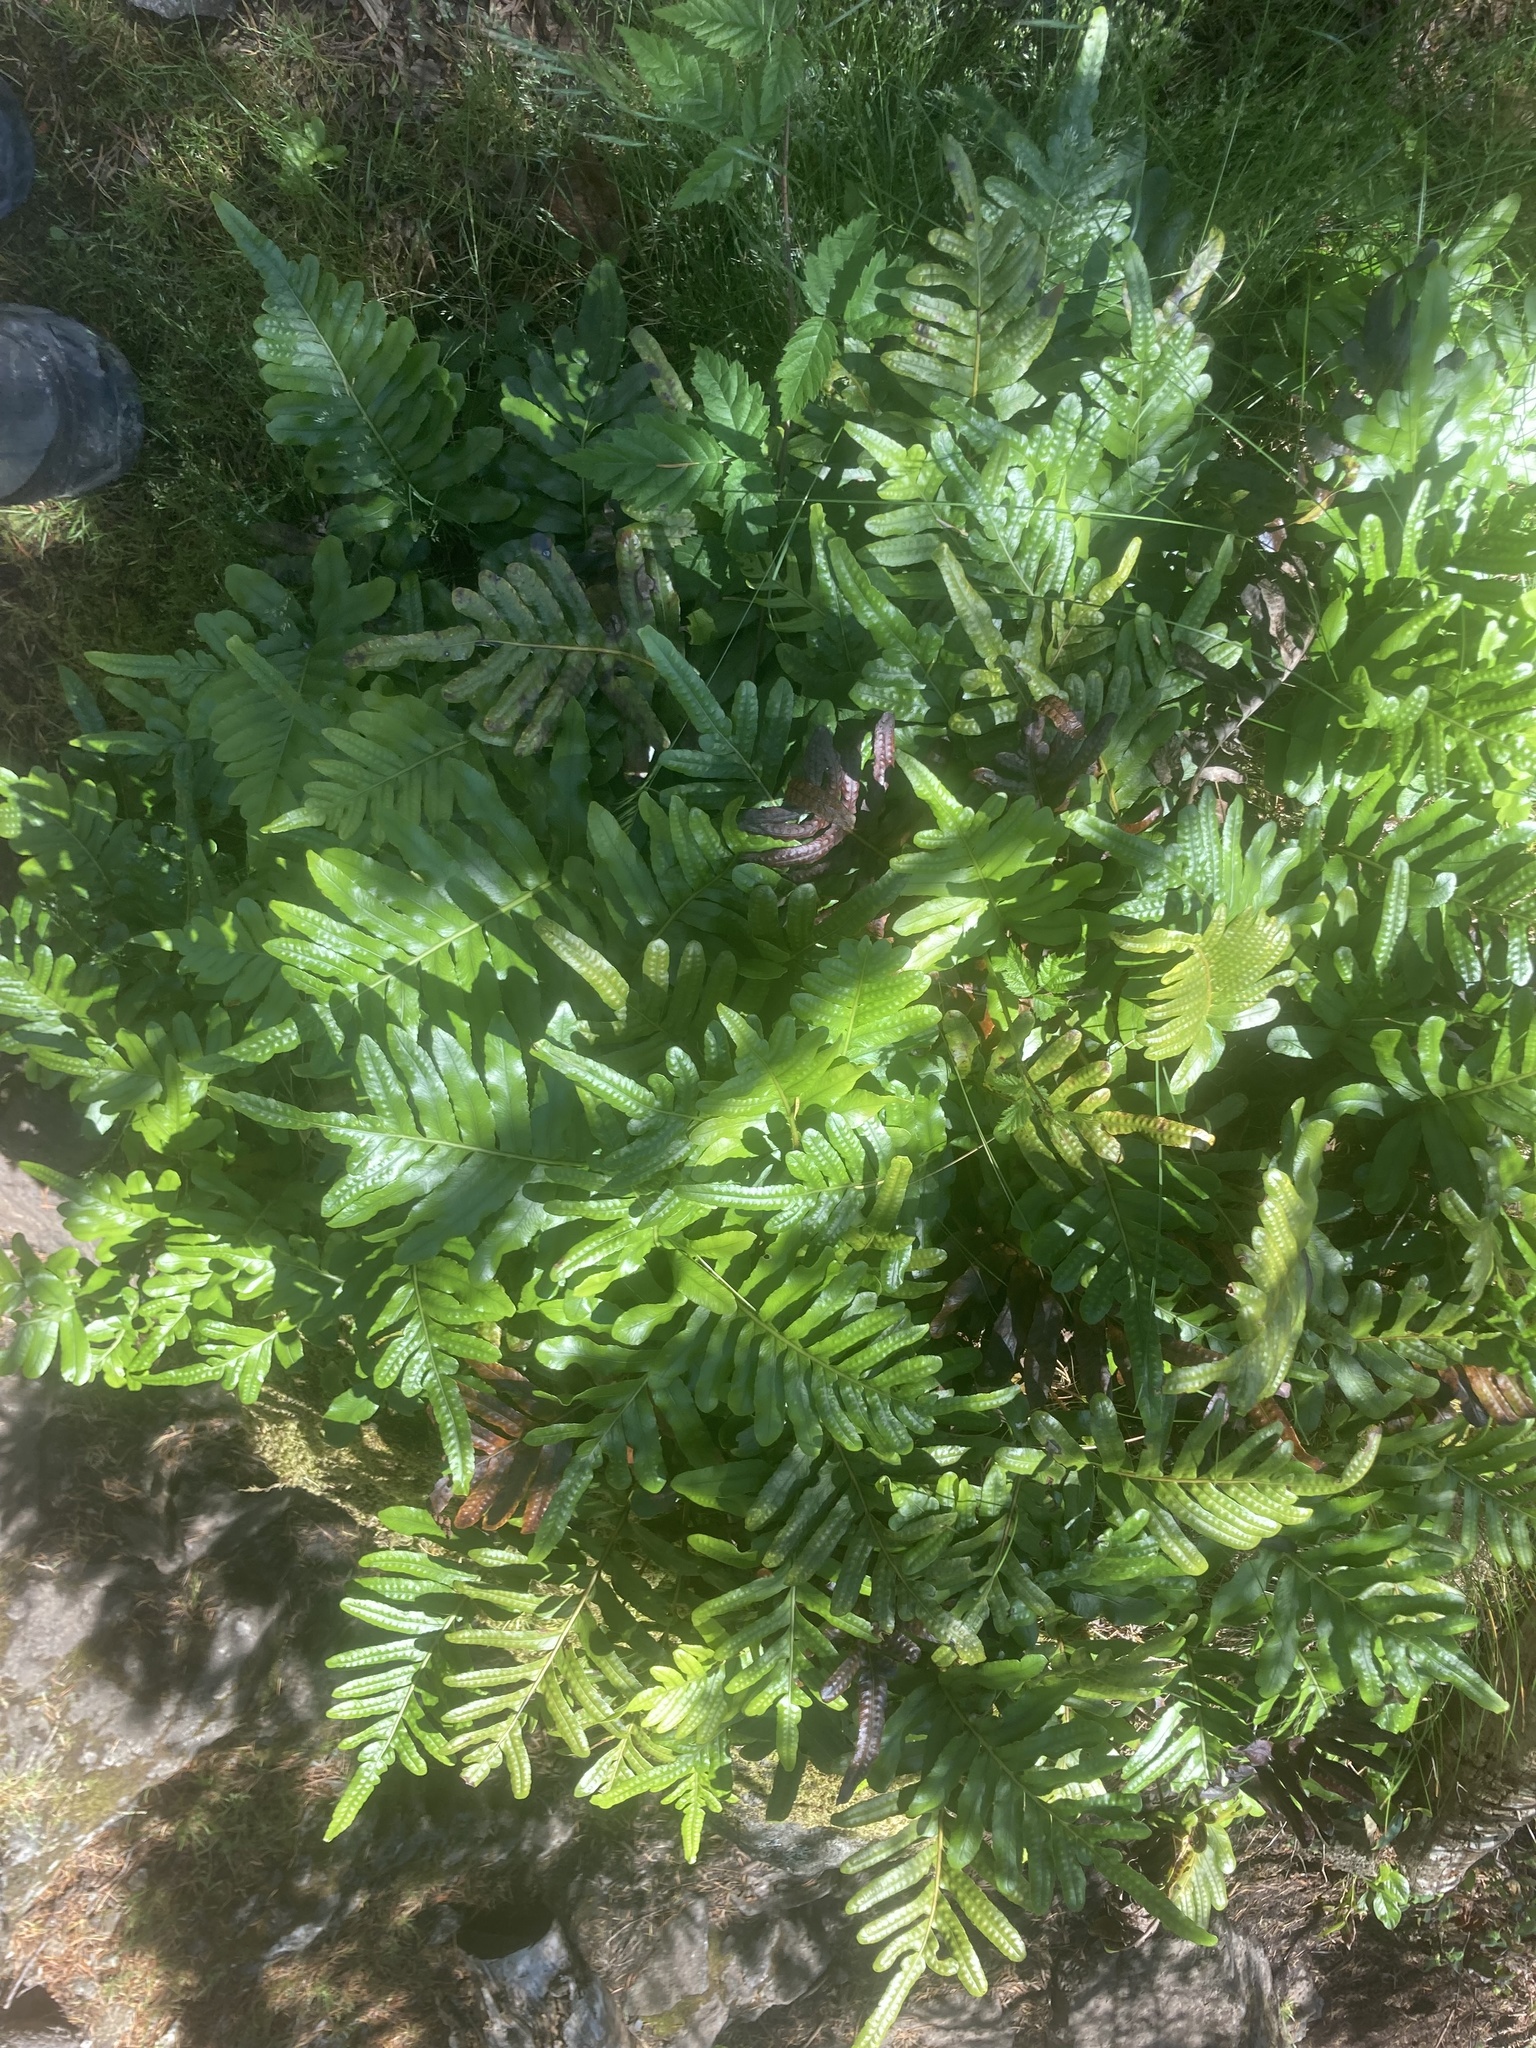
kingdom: Plantae
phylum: Tracheophyta
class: Polypodiopsida
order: Polypodiales
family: Polypodiaceae
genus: Polypodium
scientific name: Polypodium scouleri
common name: Scouler's polypody
